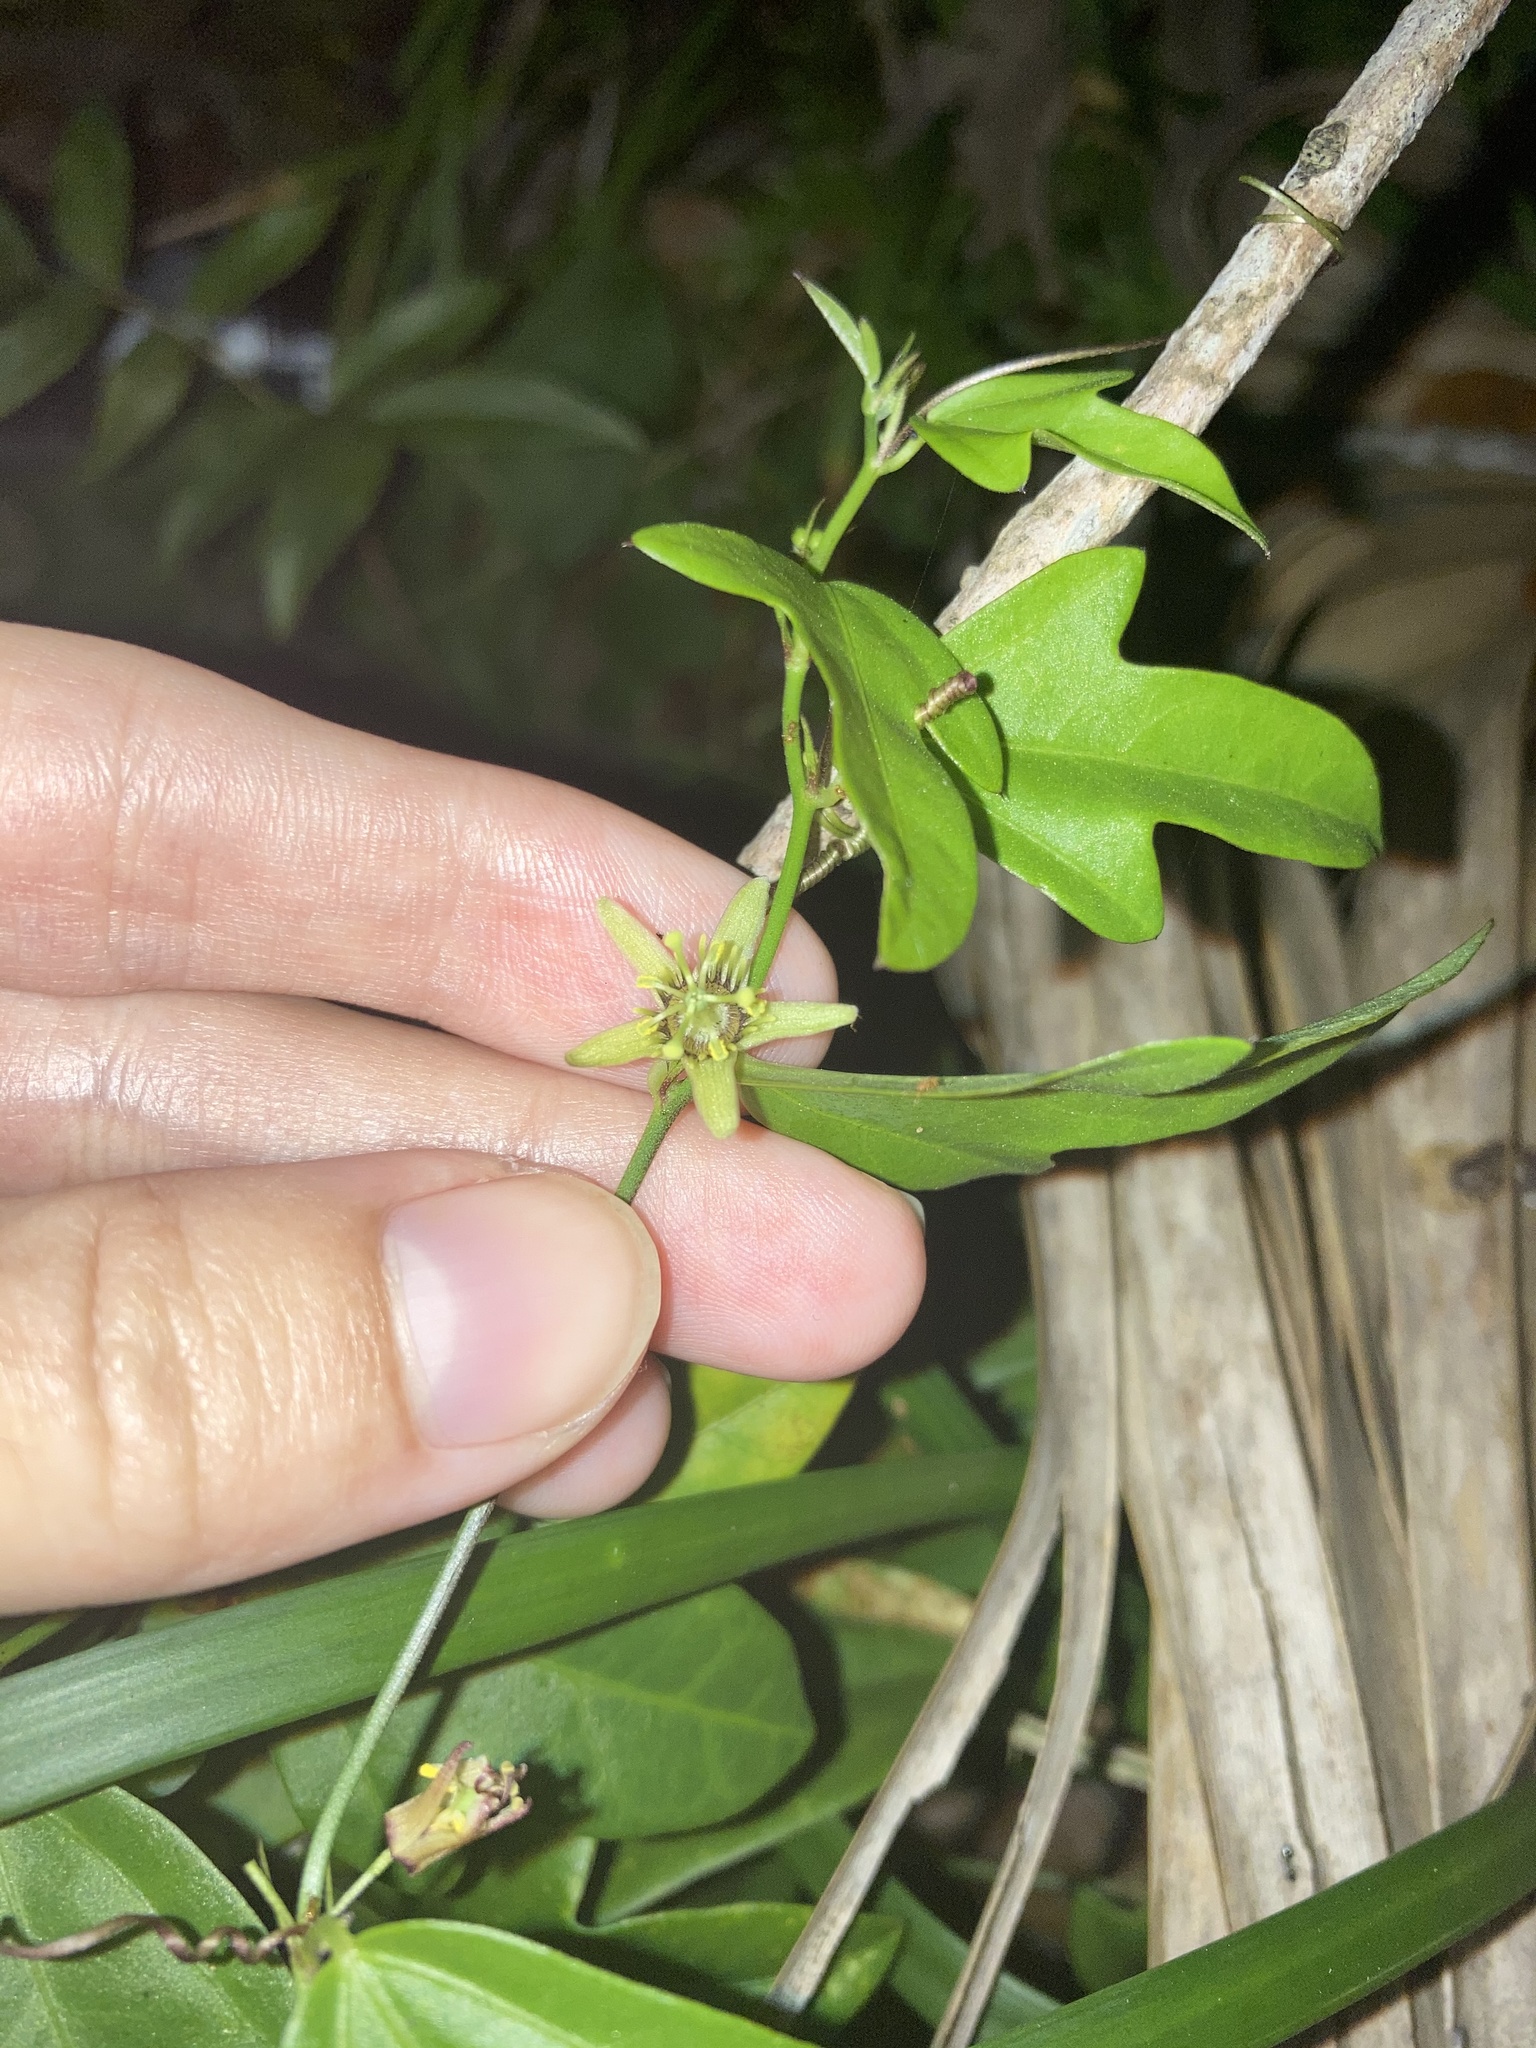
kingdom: Plantae
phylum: Tracheophyta
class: Magnoliopsida
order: Malpighiales
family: Passifloraceae
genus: Passiflora
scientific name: Passiflora pallida
